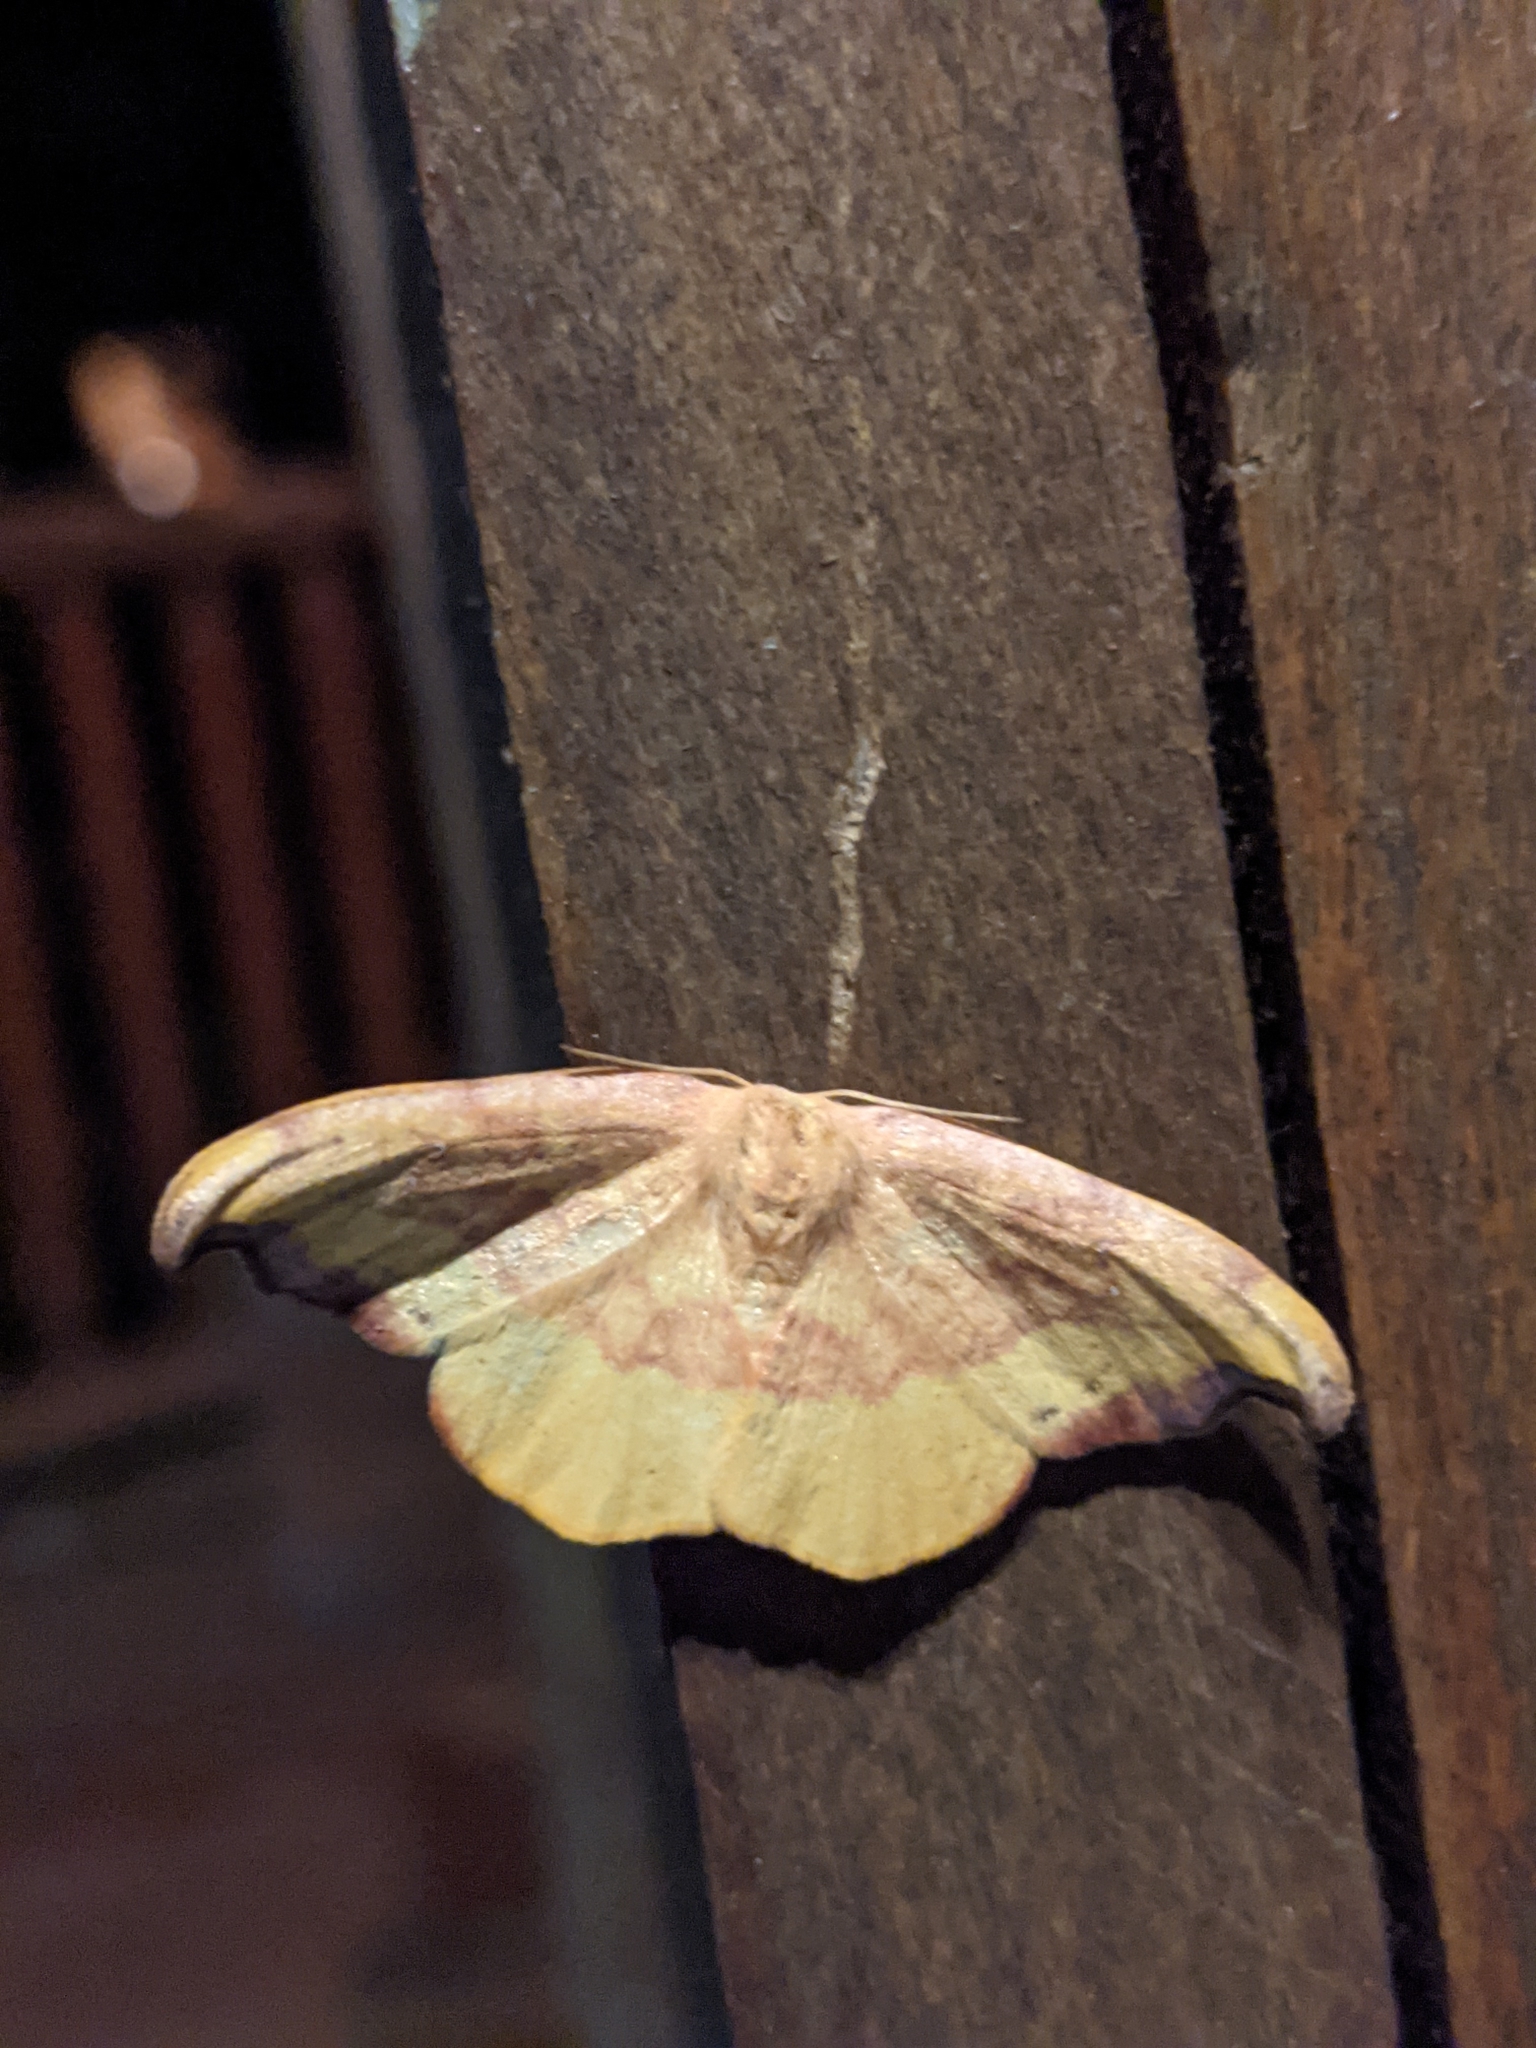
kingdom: Animalia
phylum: Arthropoda
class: Insecta
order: Lepidoptera
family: Drepanidae
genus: Oreta
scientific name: Oreta rosea
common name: Rose hooktip
